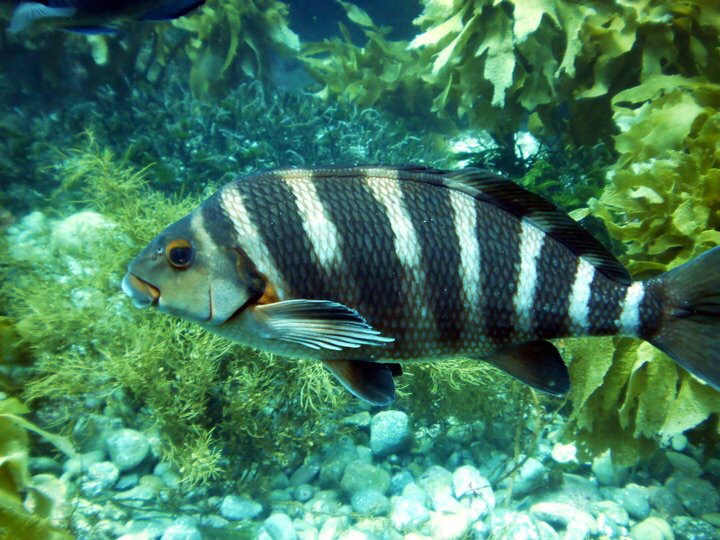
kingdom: Animalia
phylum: Chordata
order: Perciformes
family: Cheilodactylidae
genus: Cheilodactylus
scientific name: Cheilodactylus spectabilis
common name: Red moki
